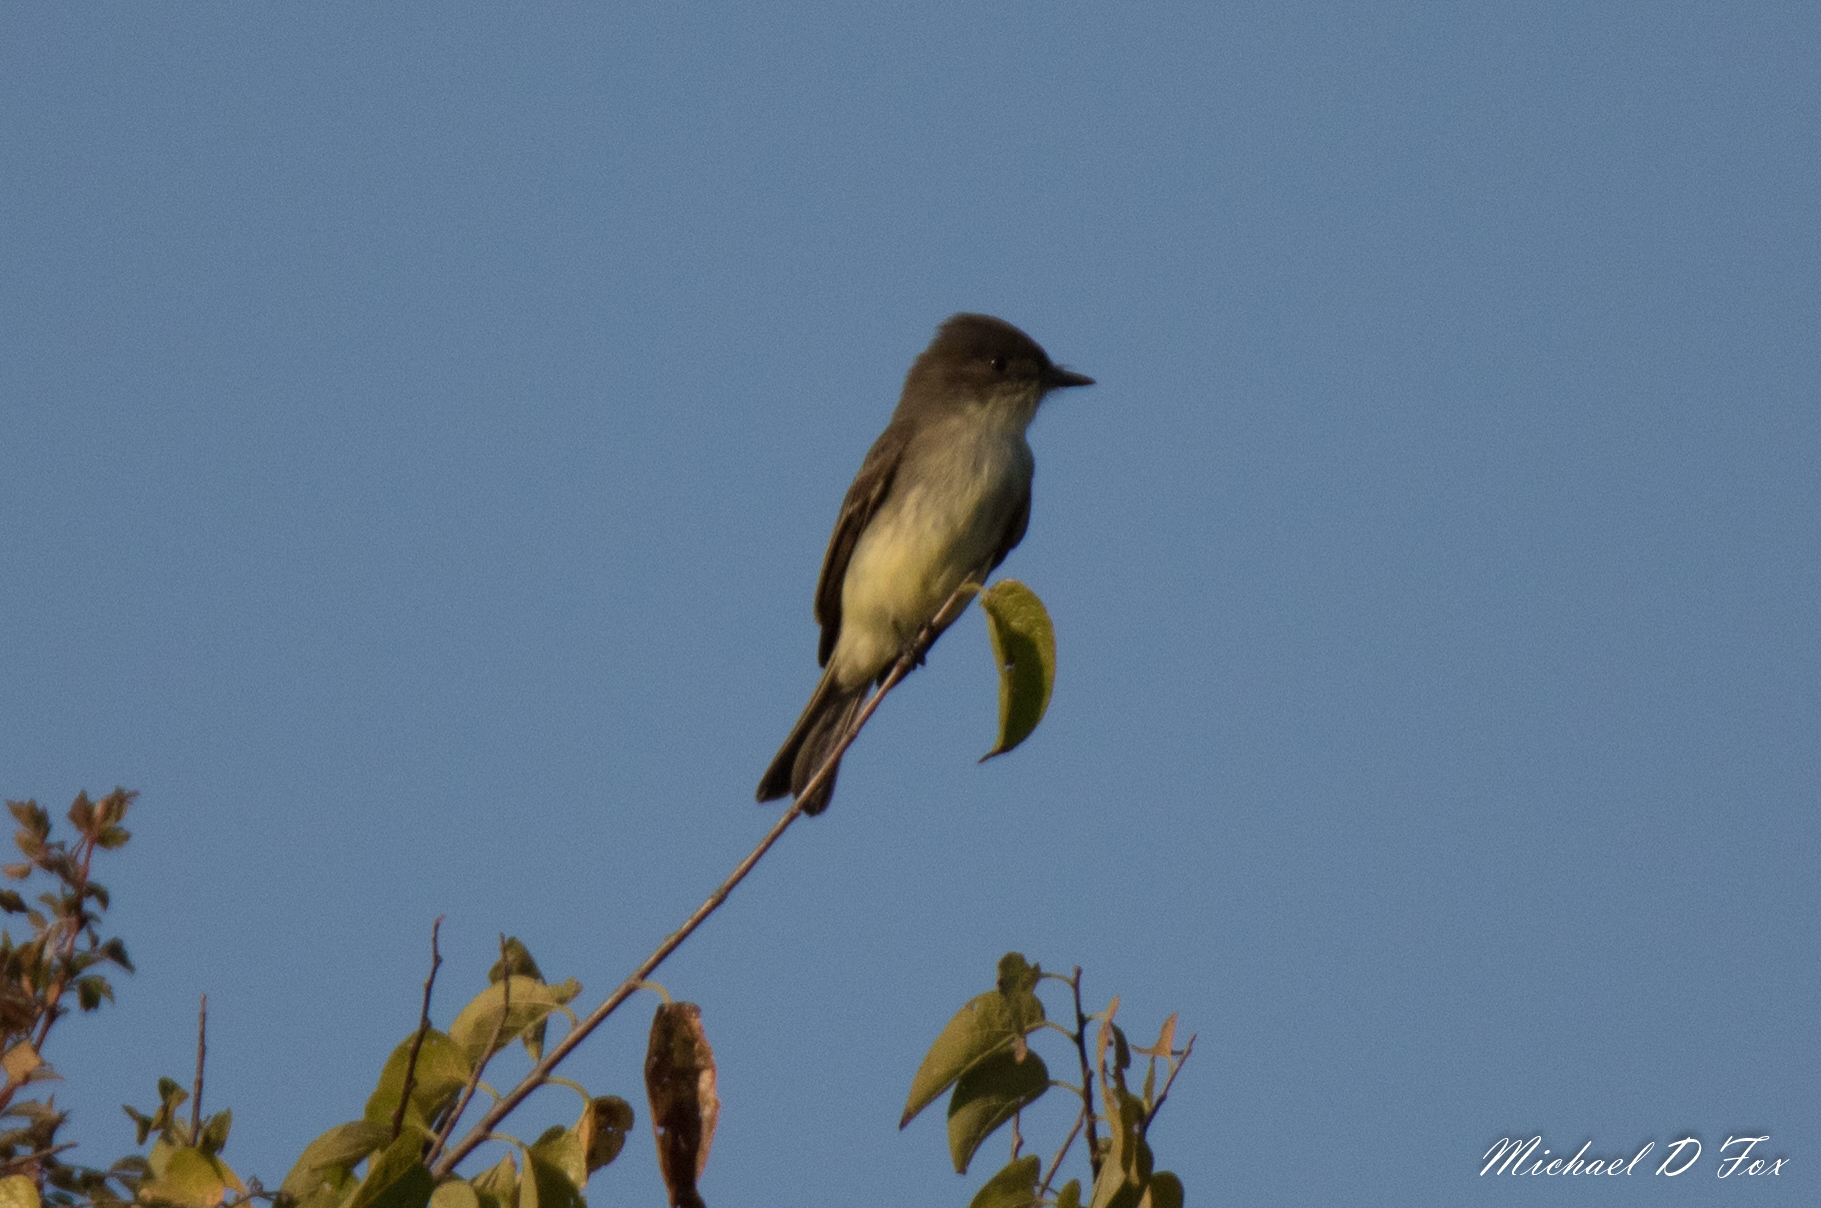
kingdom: Animalia
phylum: Chordata
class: Aves
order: Passeriformes
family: Tyrannidae
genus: Sayornis
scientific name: Sayornis phoebe
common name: Eastern phoebe
